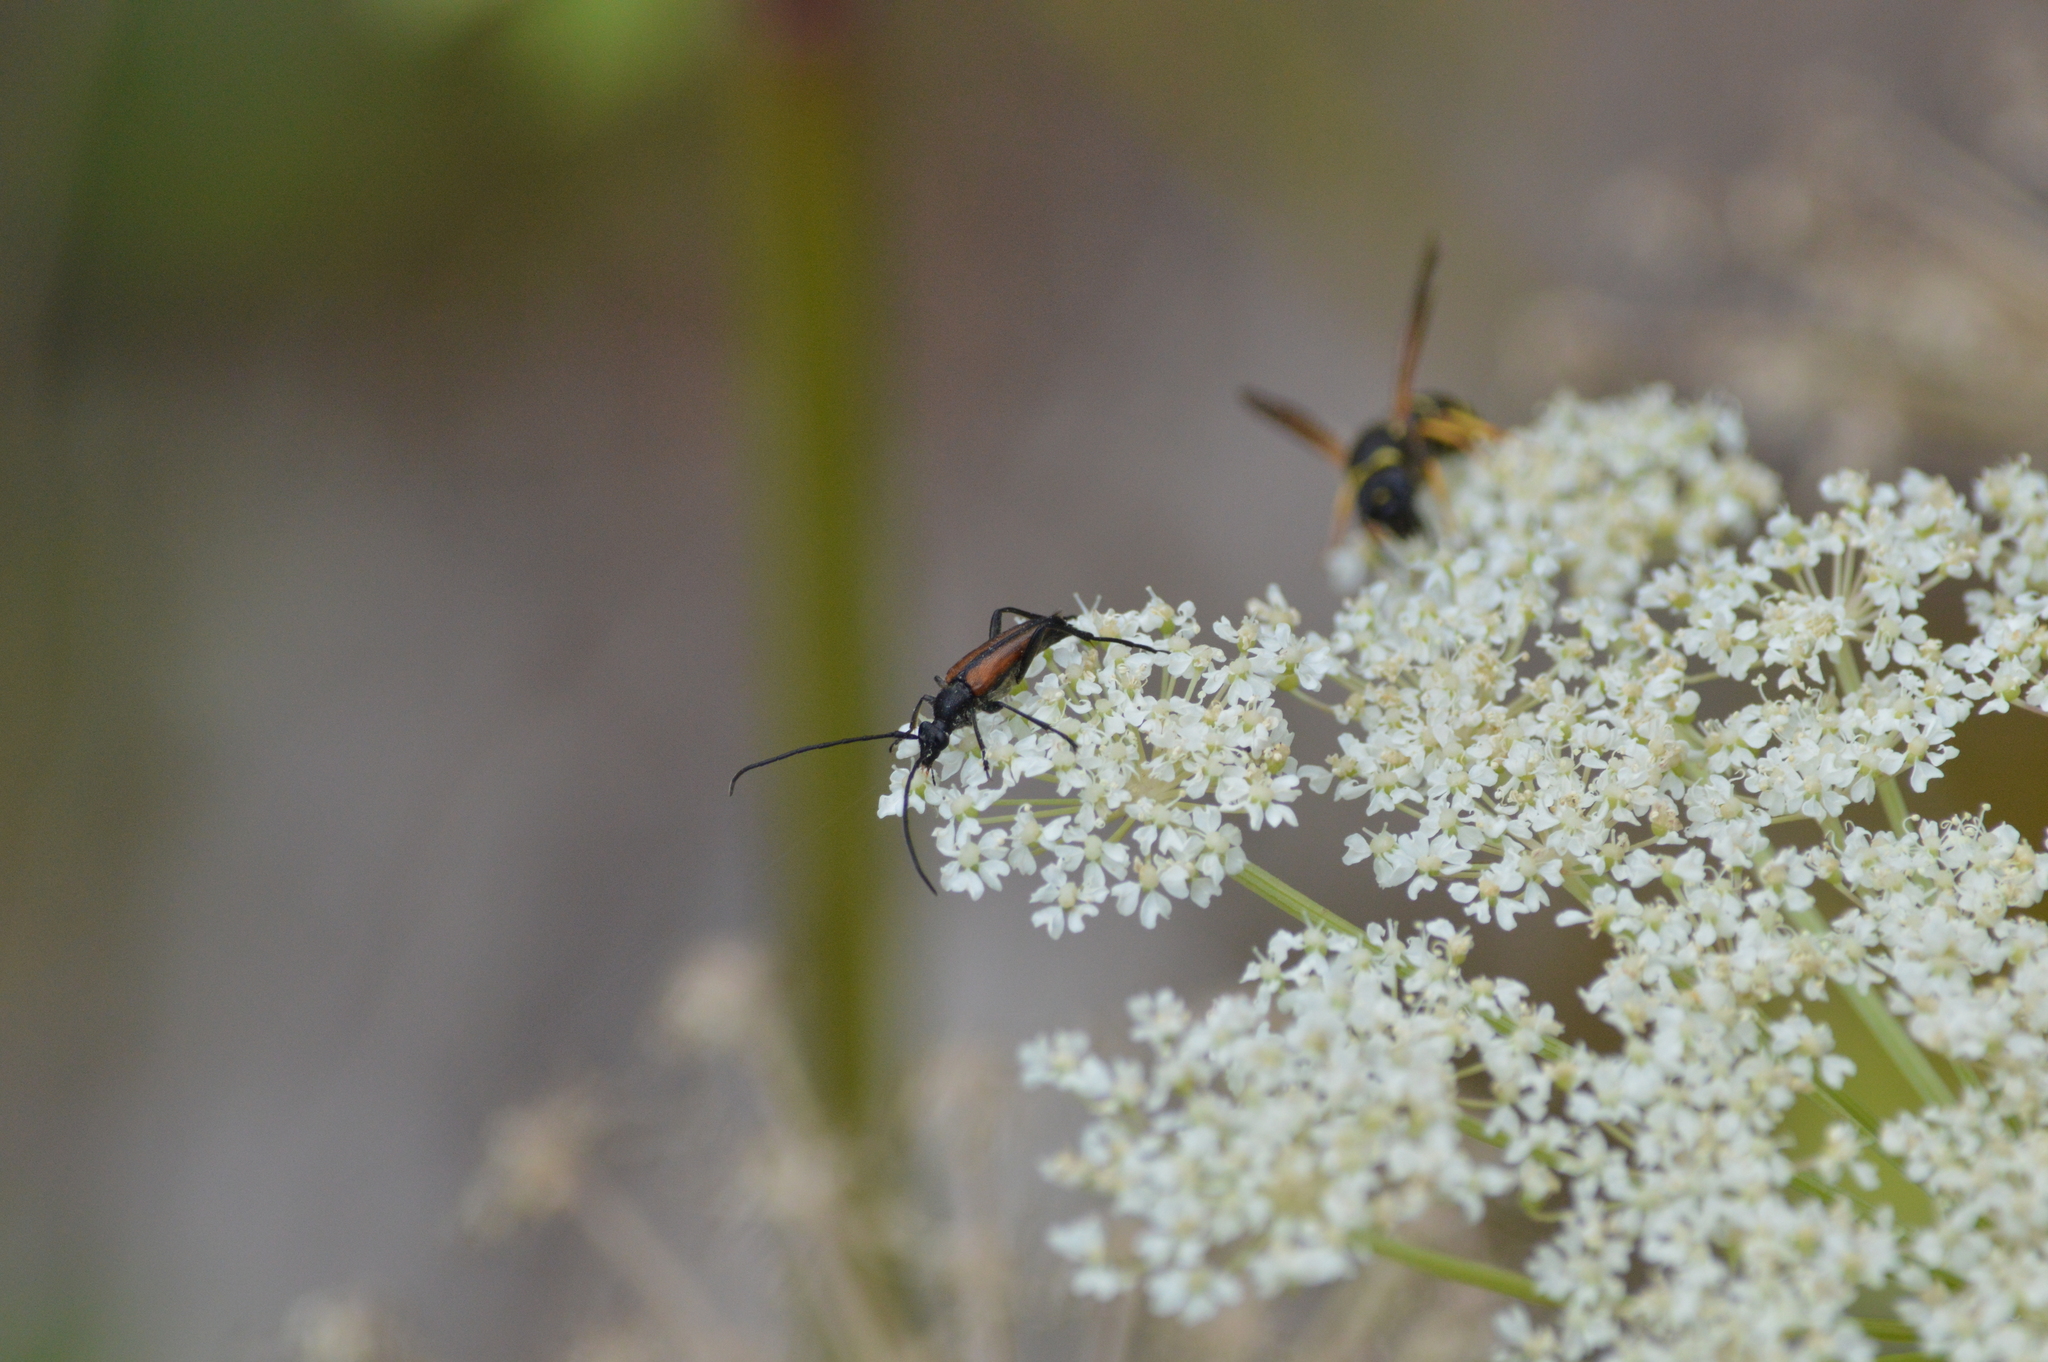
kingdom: Animalia
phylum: Arthropoda
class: Insecta
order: Coleoptera
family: Cerambycidae
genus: Stenurella
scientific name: Stenurella melanura
